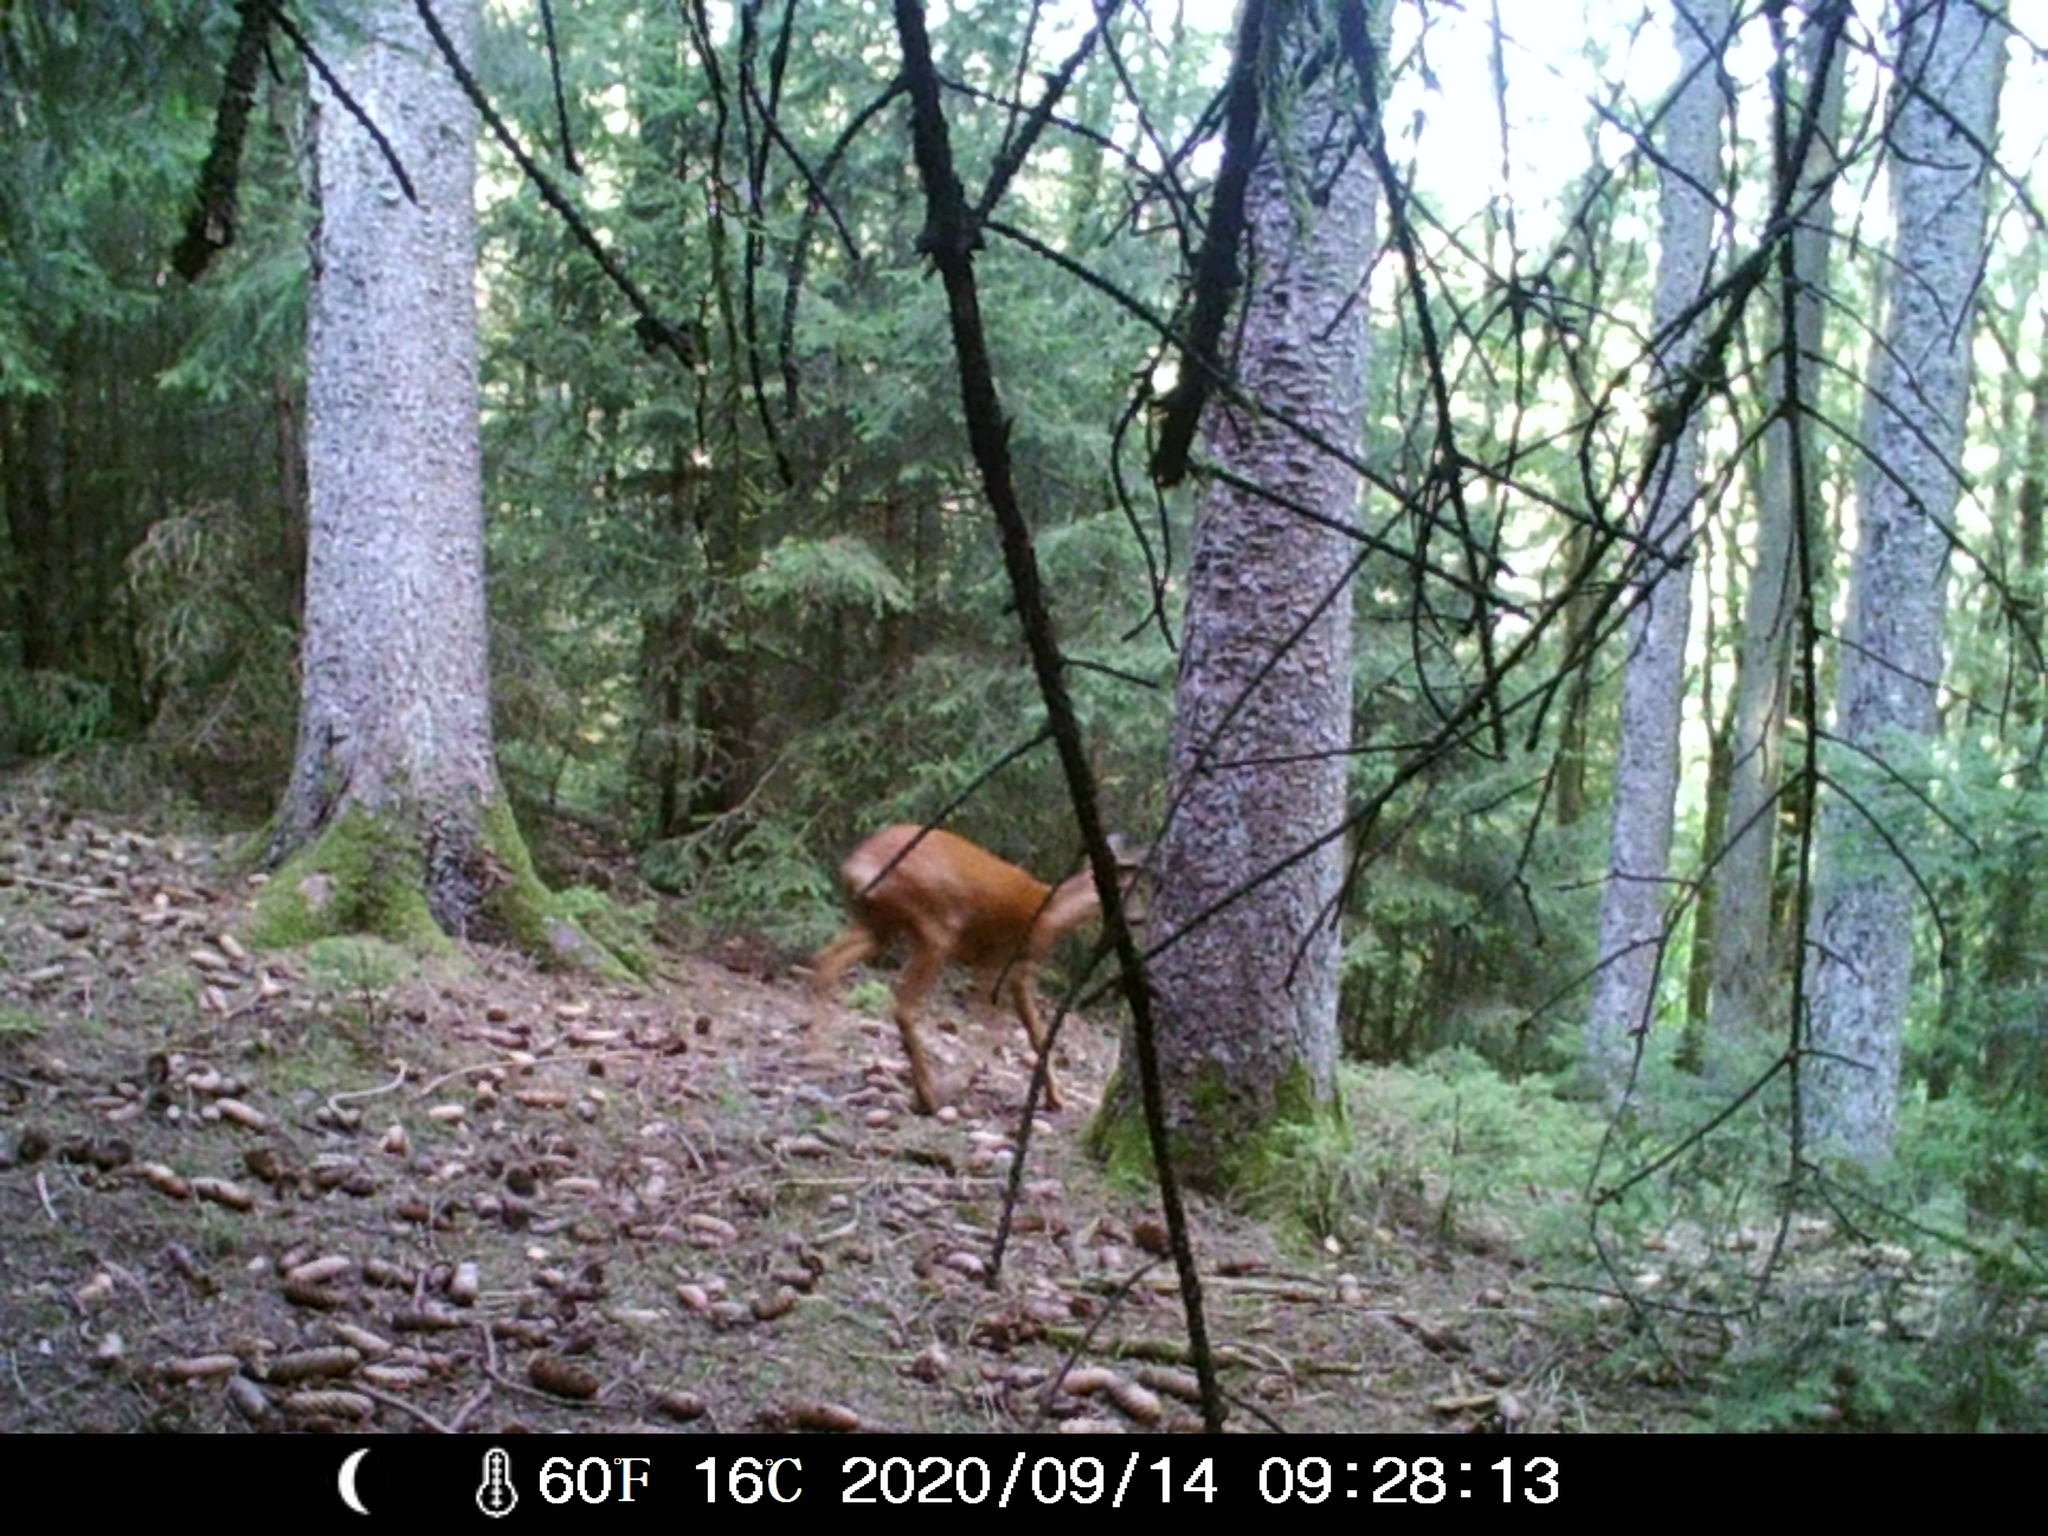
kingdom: Animalia
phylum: Chordata
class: Mammalia
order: Artiodactyla
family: Cervidae
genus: Capreolus
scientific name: Capreolus capreolus
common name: Western roe deer
